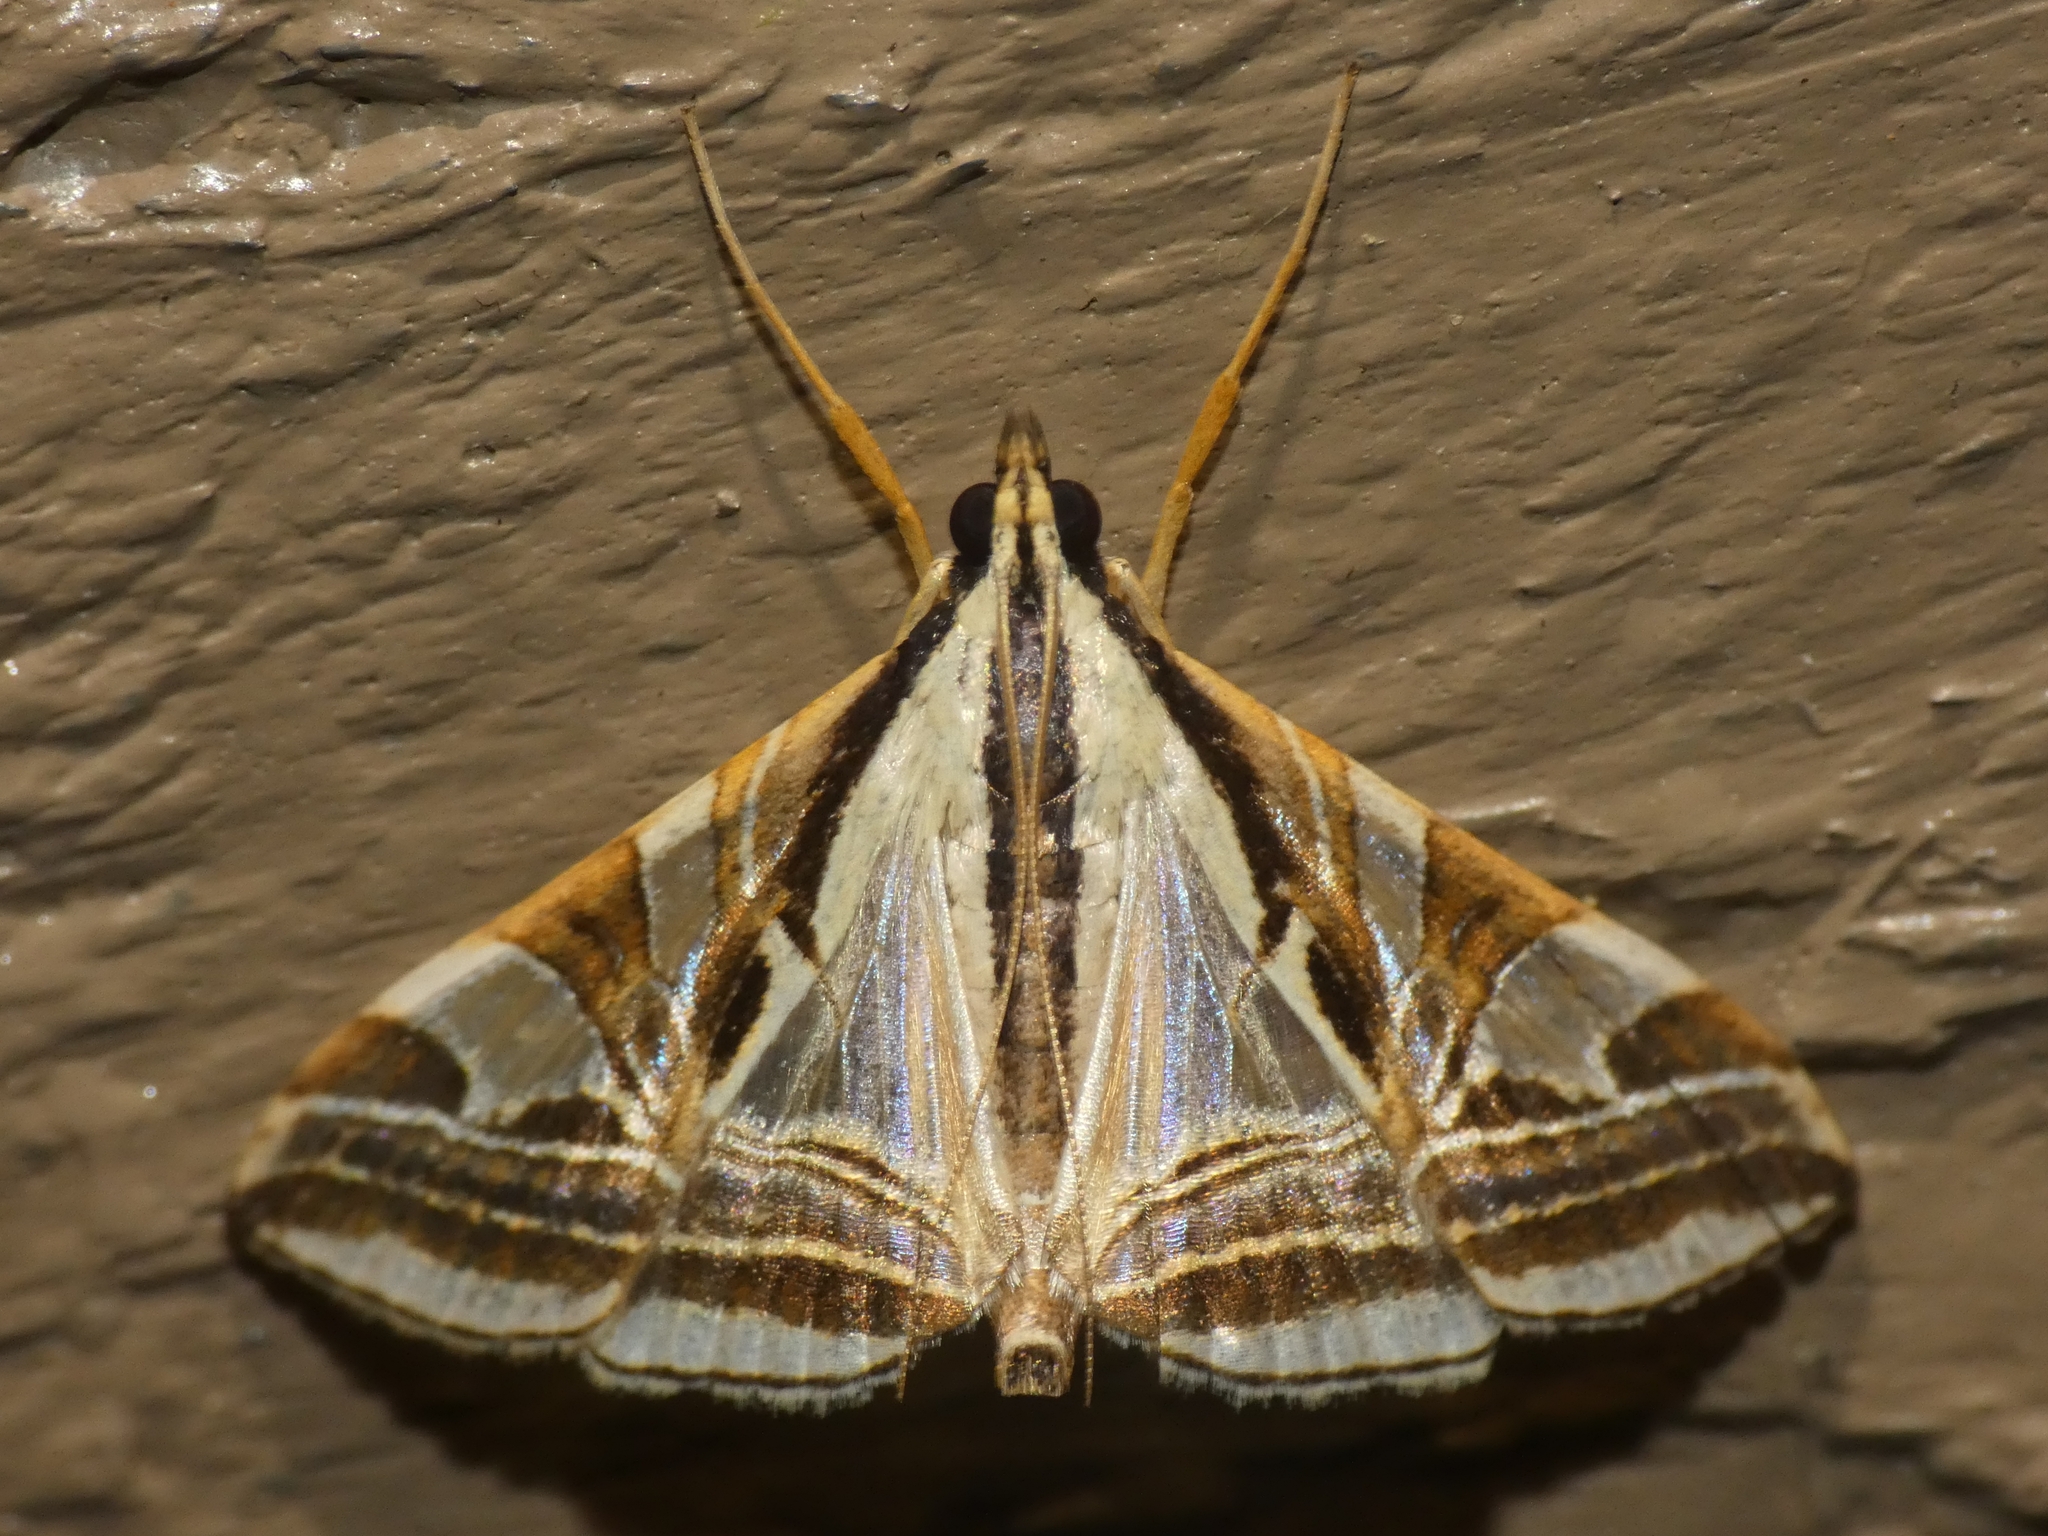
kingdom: Animalia
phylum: Arthropoda
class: Insecta
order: Lepidoptera
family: Crambidae
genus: Agrioglypta
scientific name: Agrioglypta excelsalis
